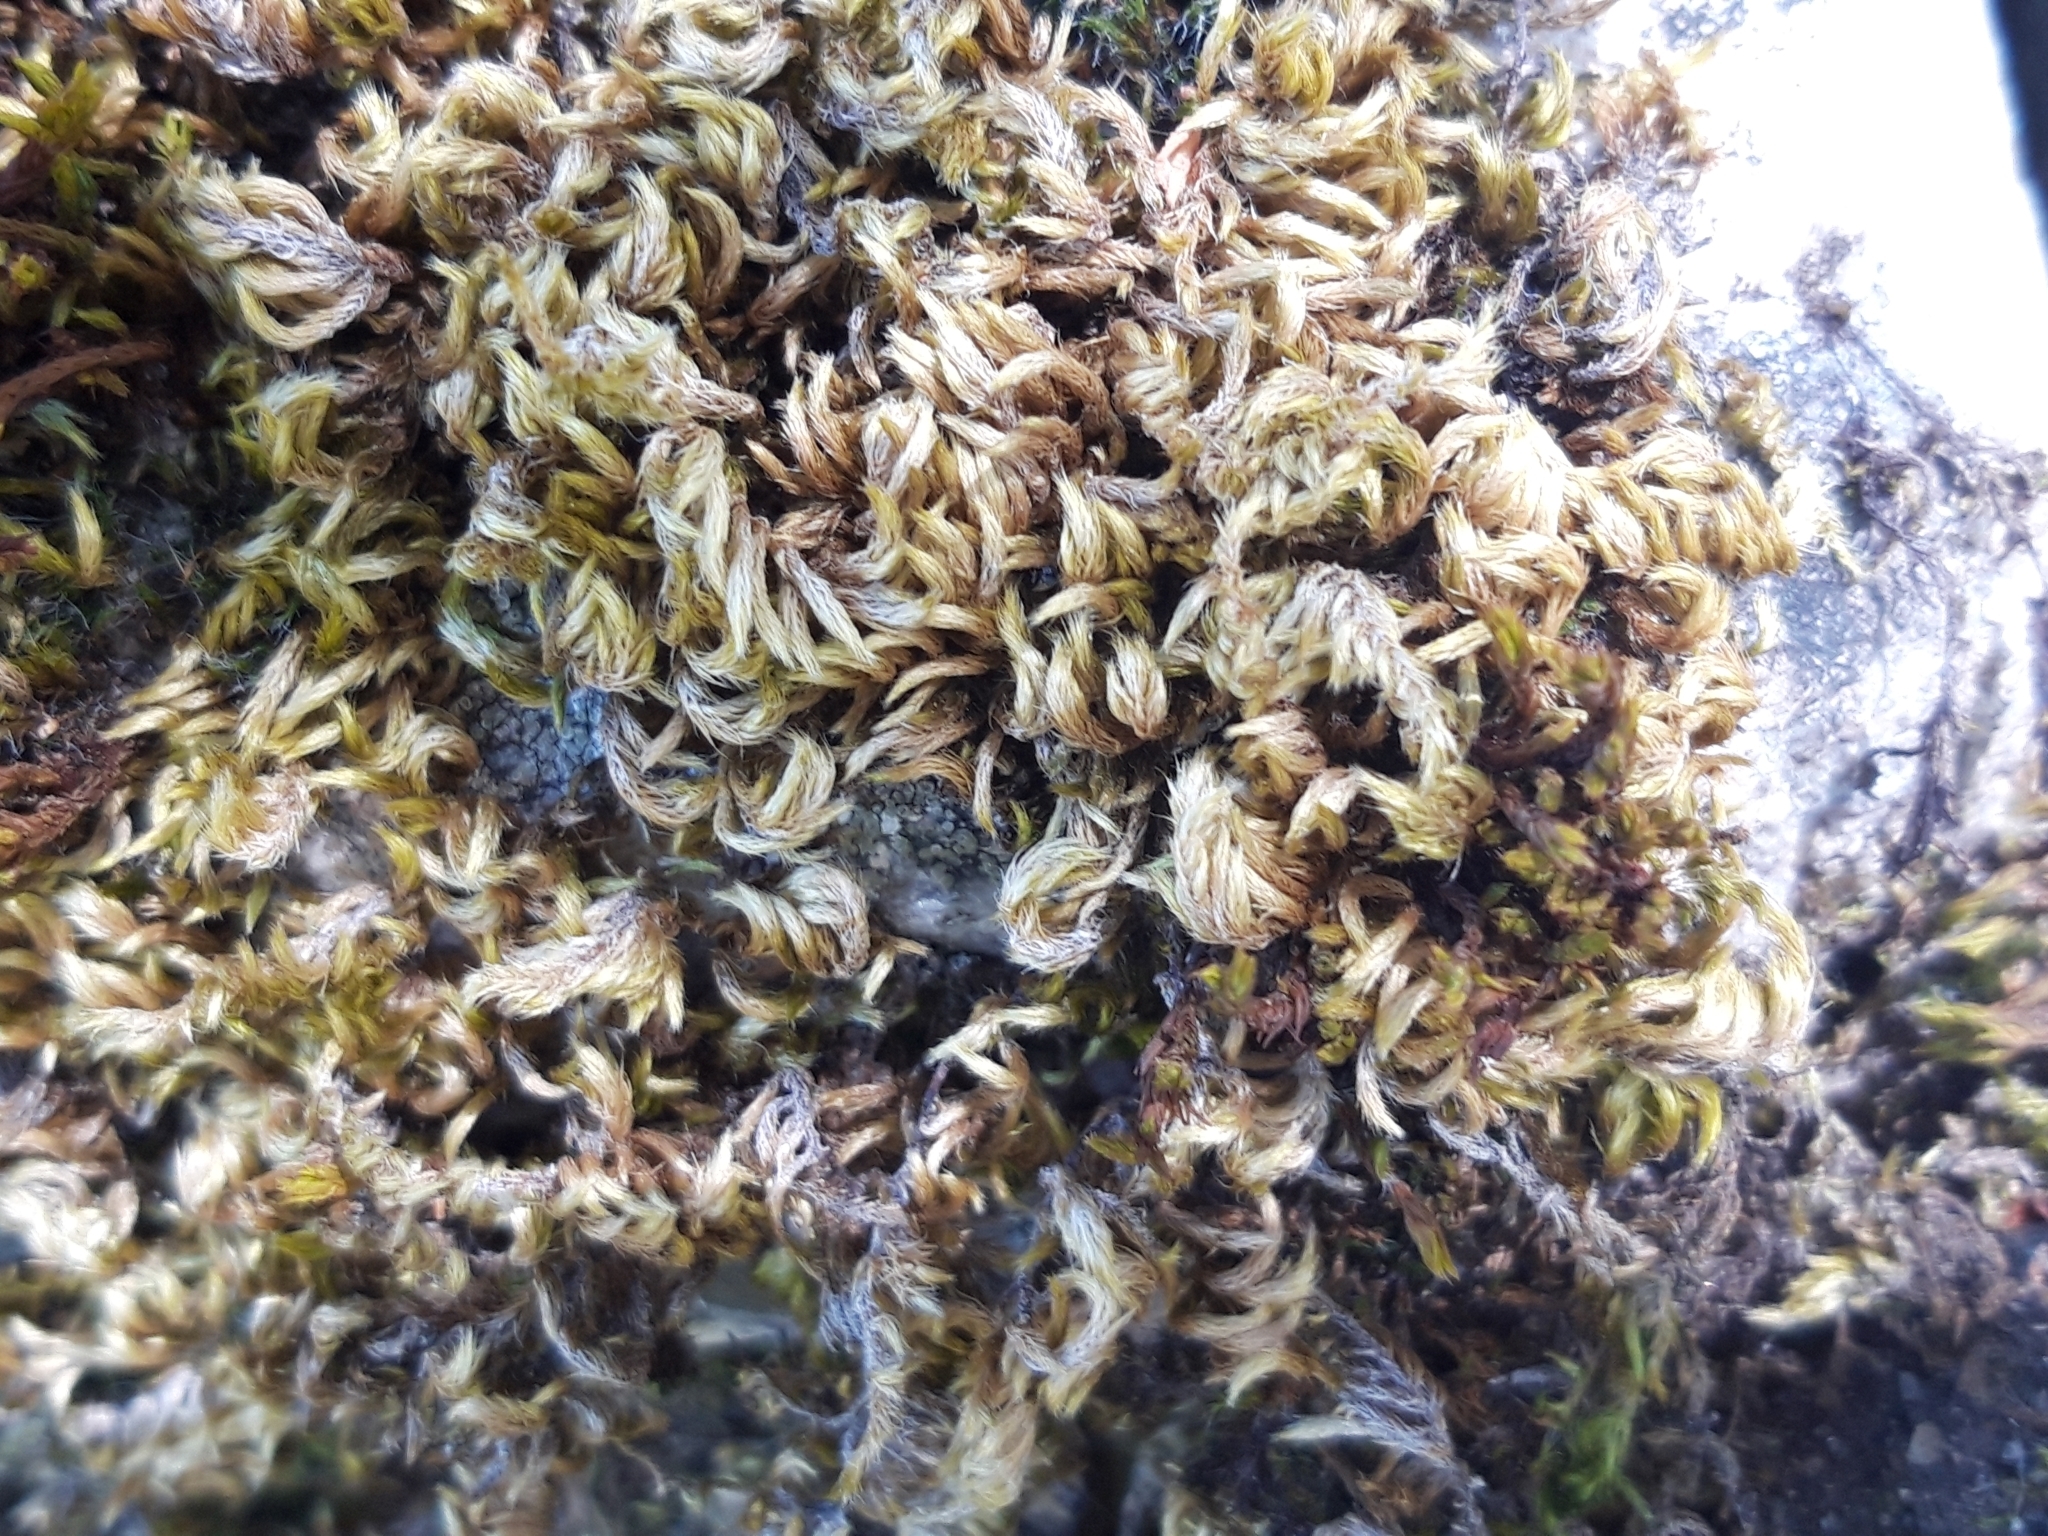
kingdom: Plantae
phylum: Bryophyta
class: Bryopsida
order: Hypnales
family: Brachytheciaceae
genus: Homalothecium
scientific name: Homalothecium sericeum
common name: Silky wall feather-moss
